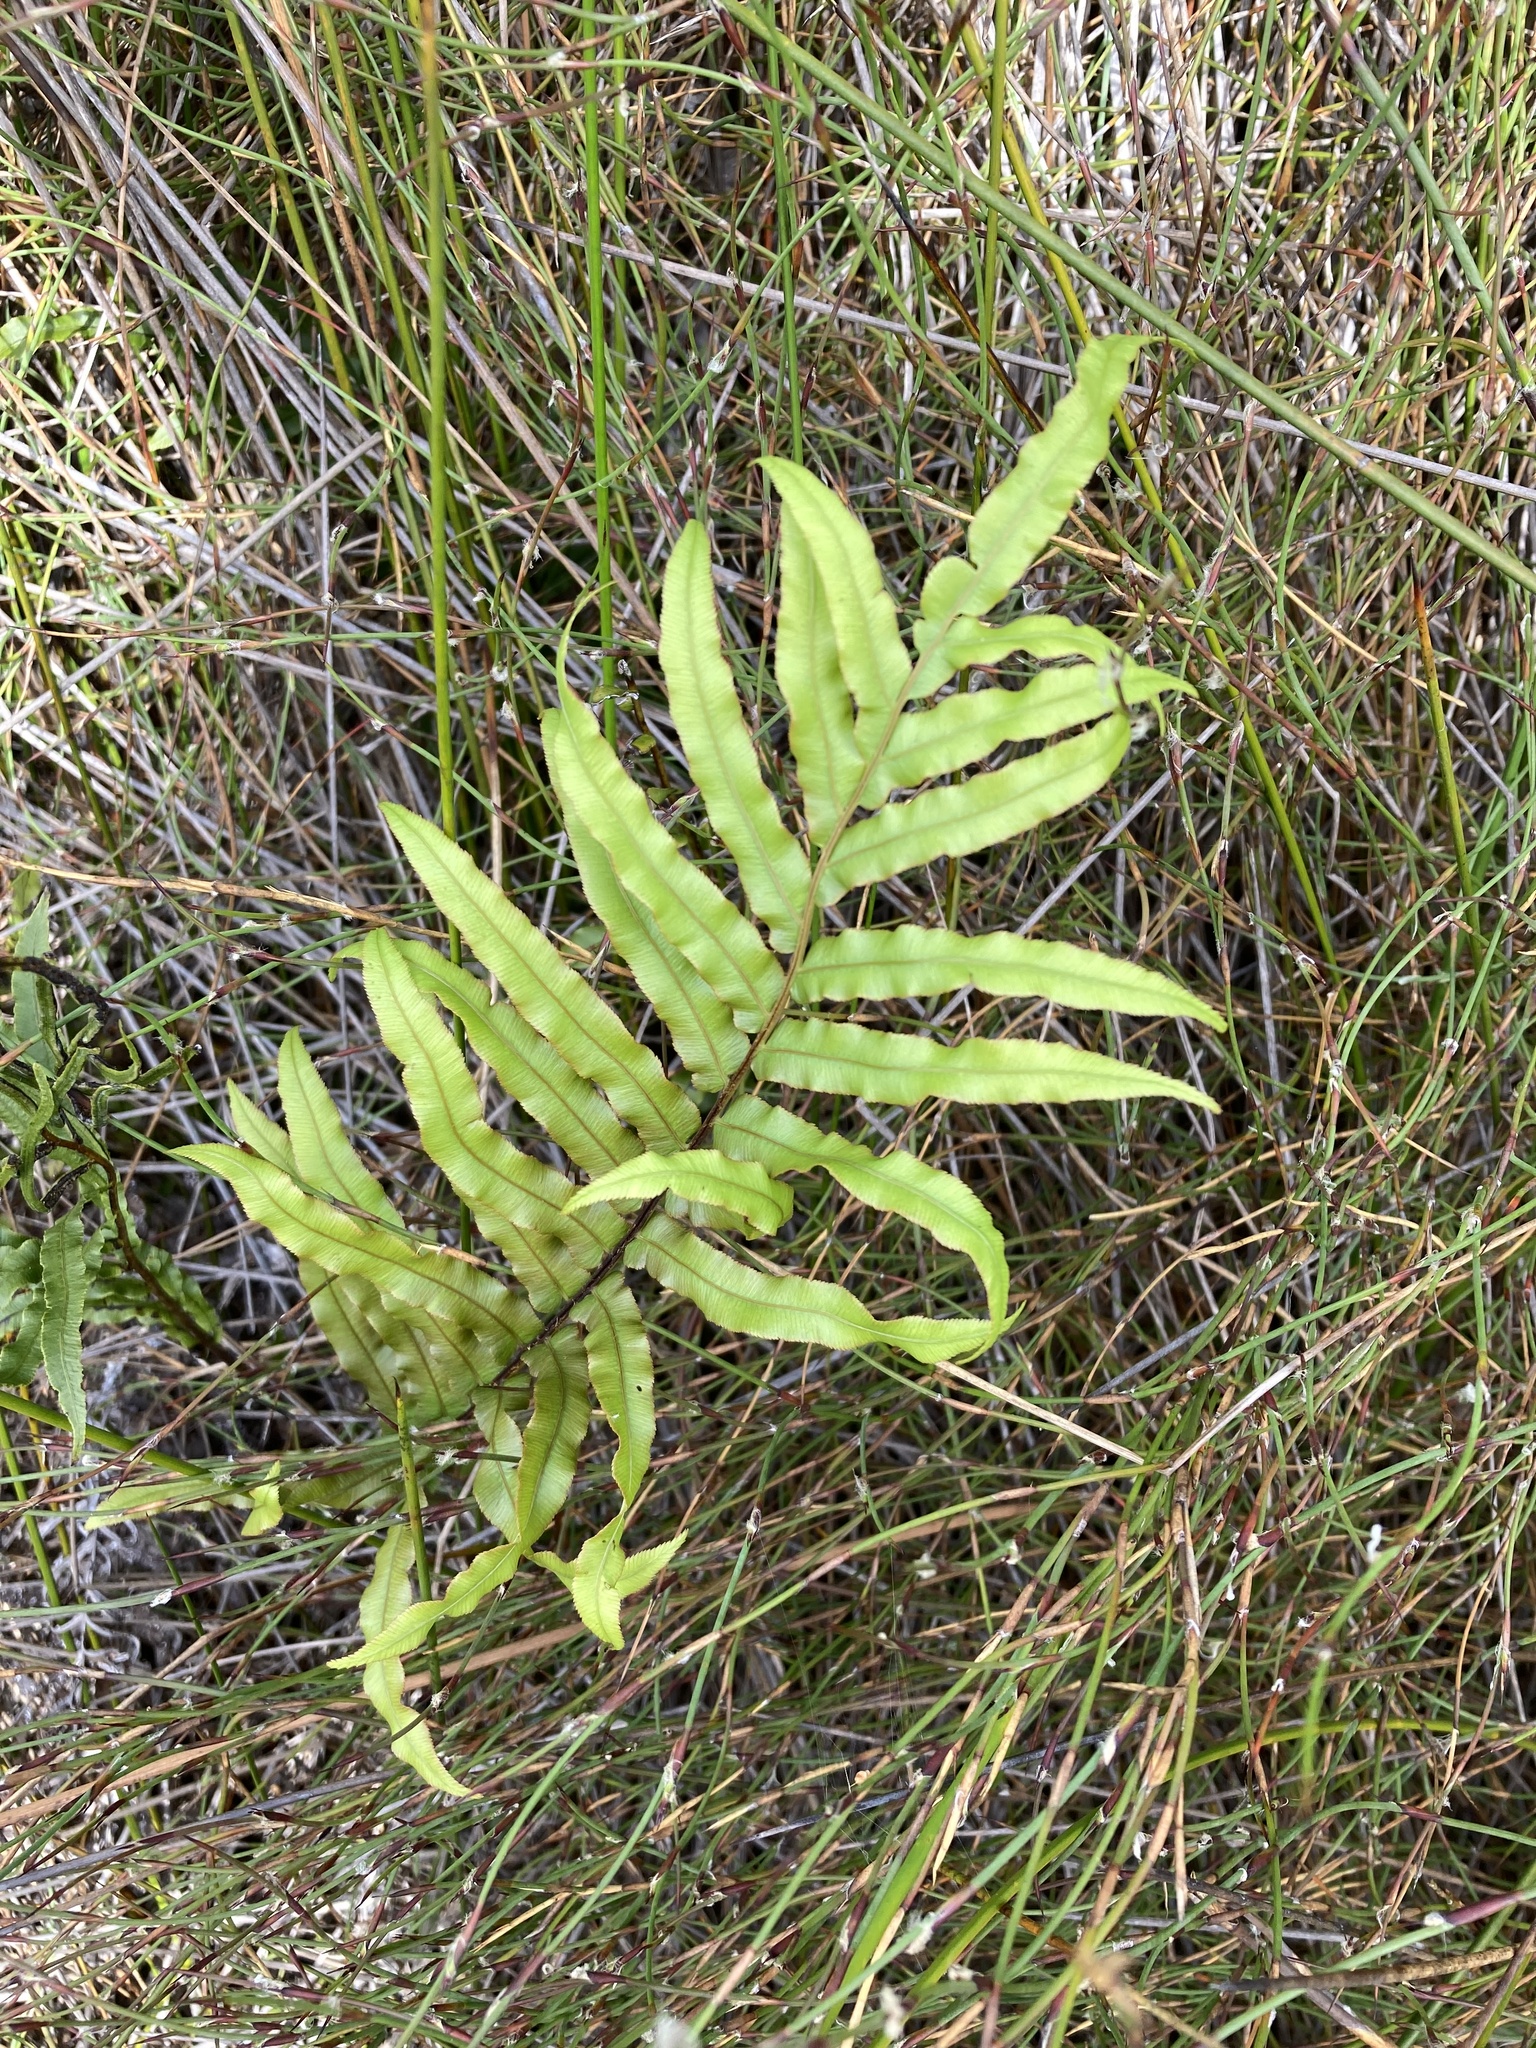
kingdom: Plantae
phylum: Tracheophyta
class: Polypodiopsida
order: Polypodiales
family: Blechnaceae
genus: Parablechnum
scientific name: Parablechnum minus
